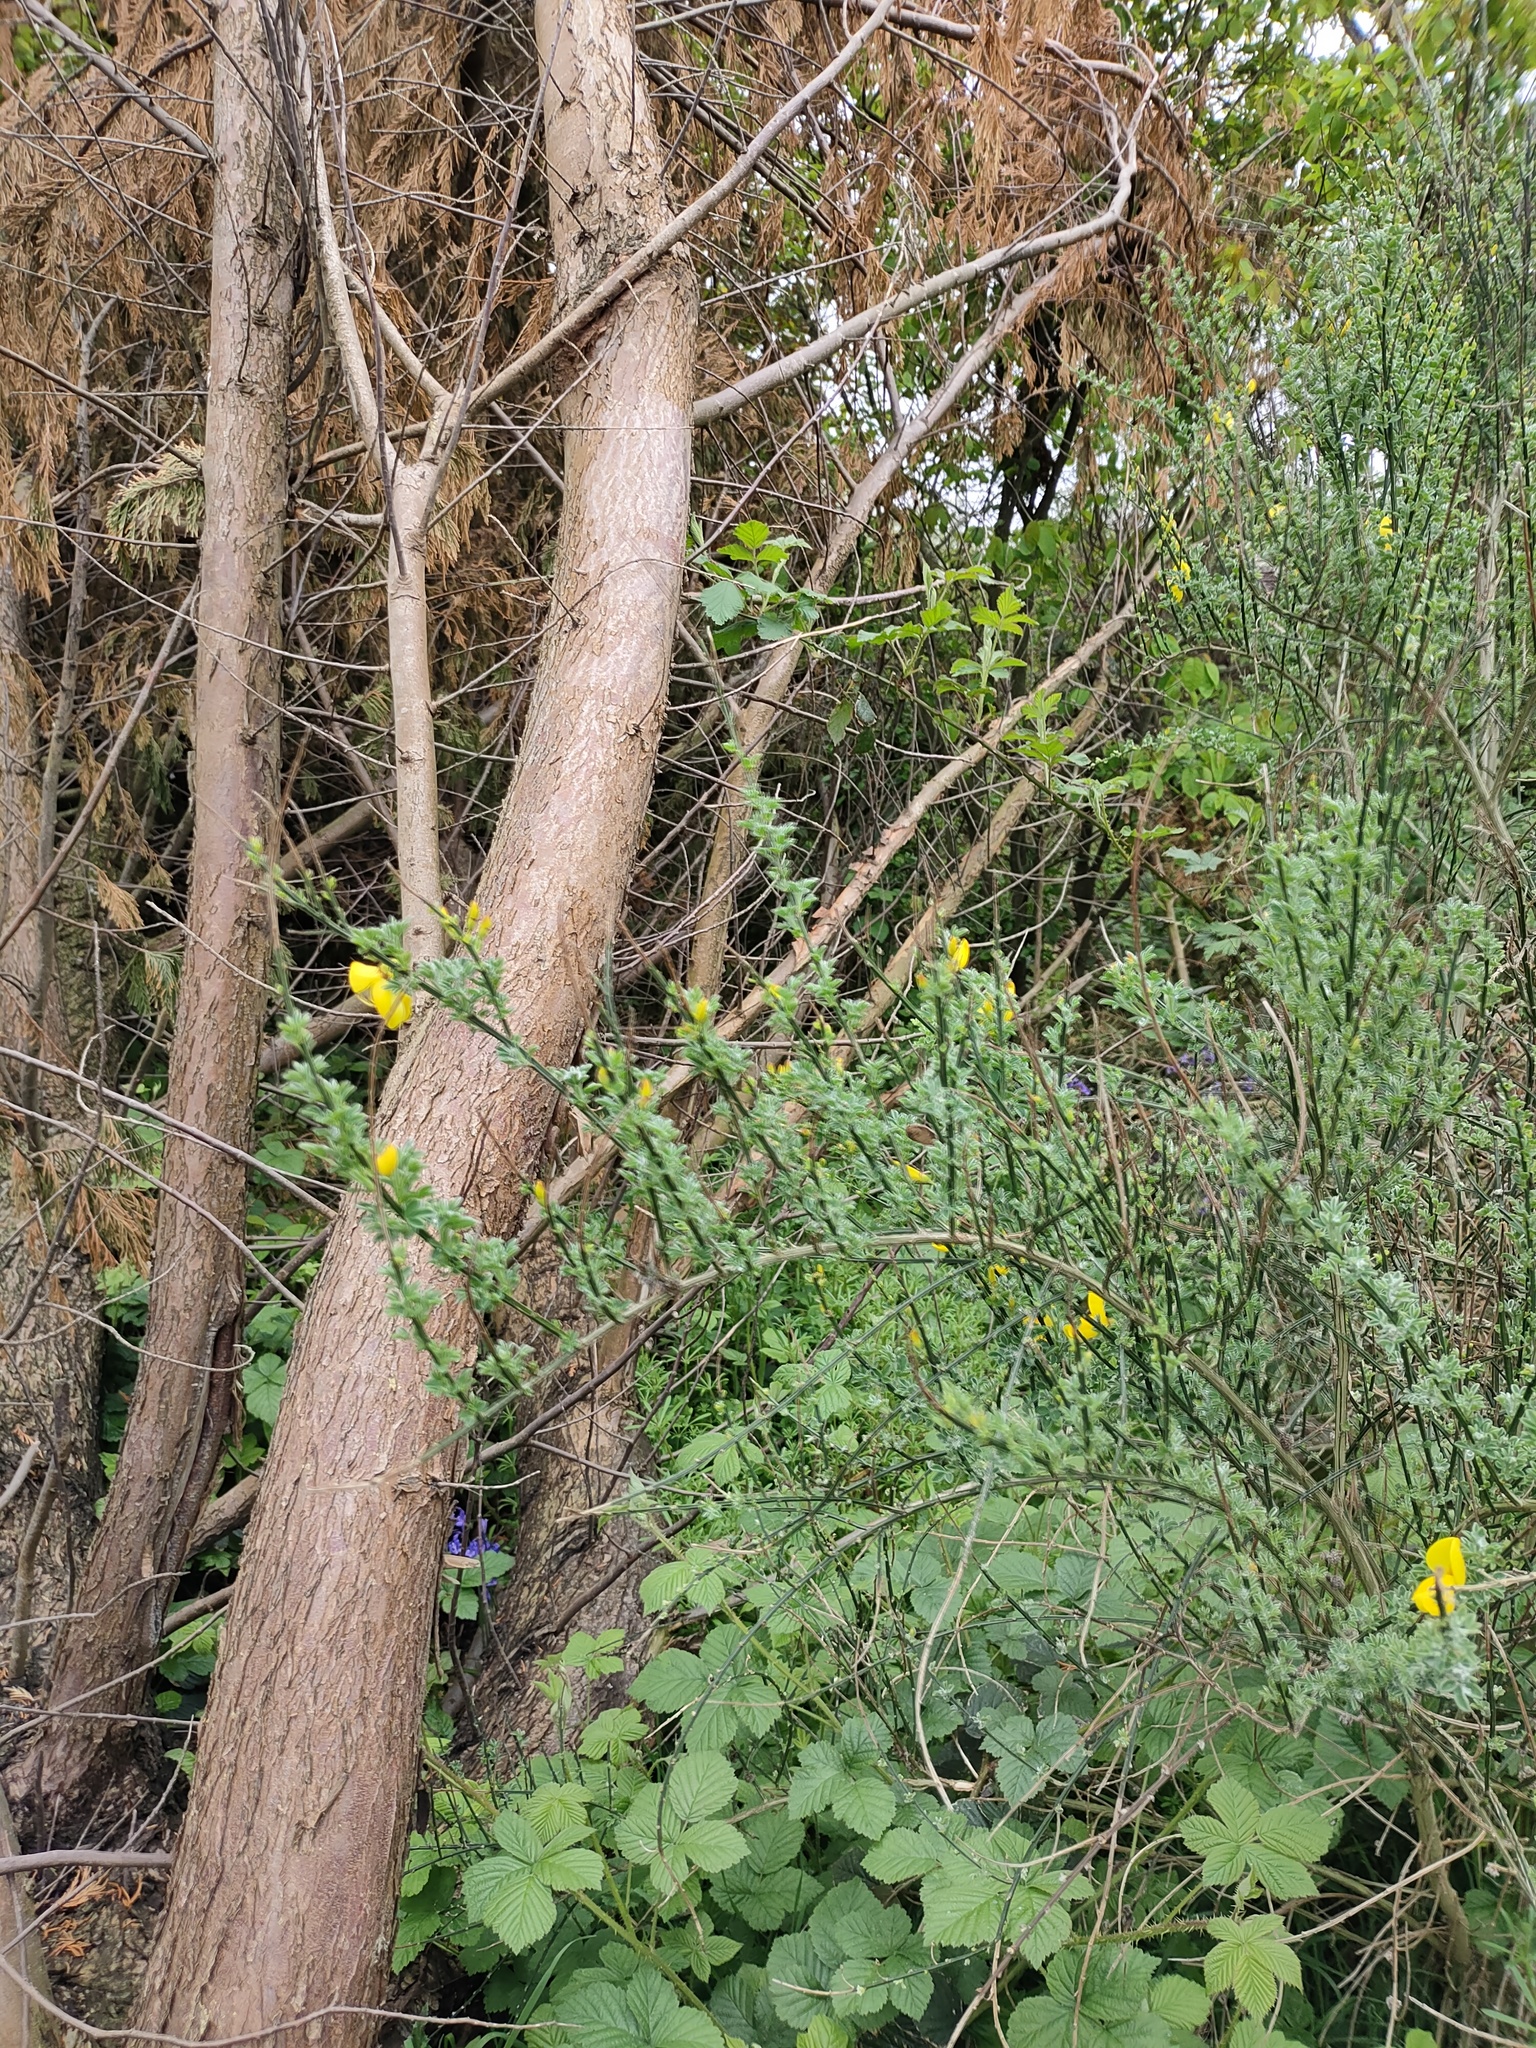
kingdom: Plantae
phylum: Tracheophyta
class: Magnoliopsida
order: Fabales
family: Fabaceae
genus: Cytisus
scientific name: Cytisus scoparius
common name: Scotch broom
